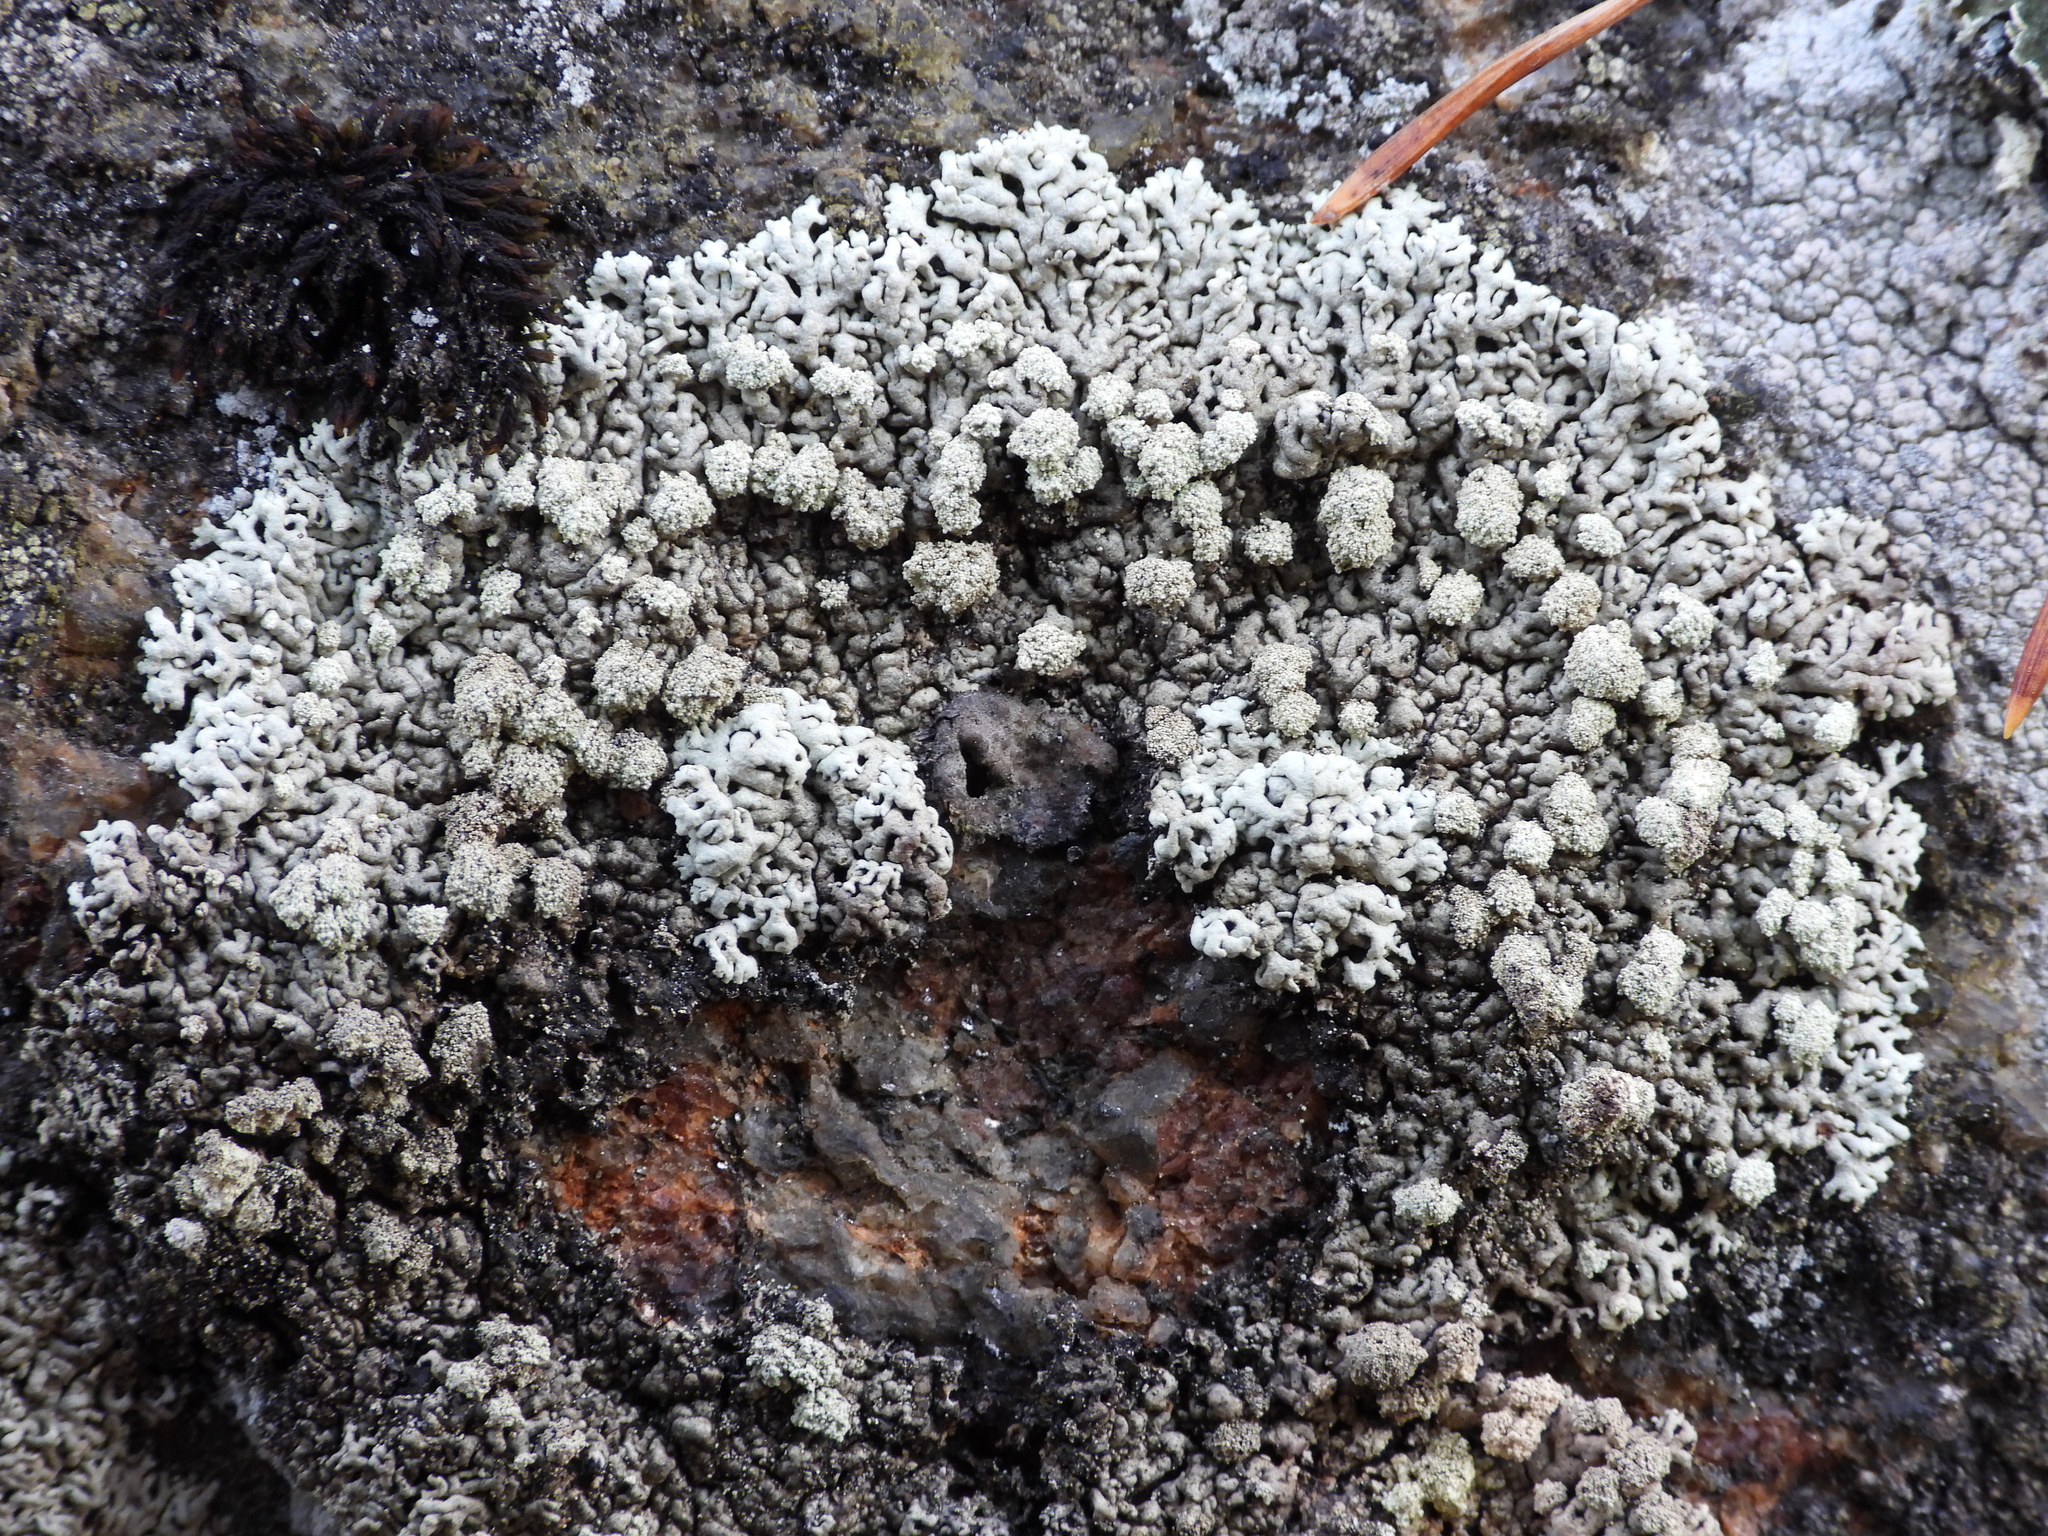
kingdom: Fungi
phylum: Ascomycota
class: Lecanoromycetes
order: Lecanorales
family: Parmeliaceae
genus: Arctoparmelia
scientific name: Arctoparmelia incurva
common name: Bent ring lichen
